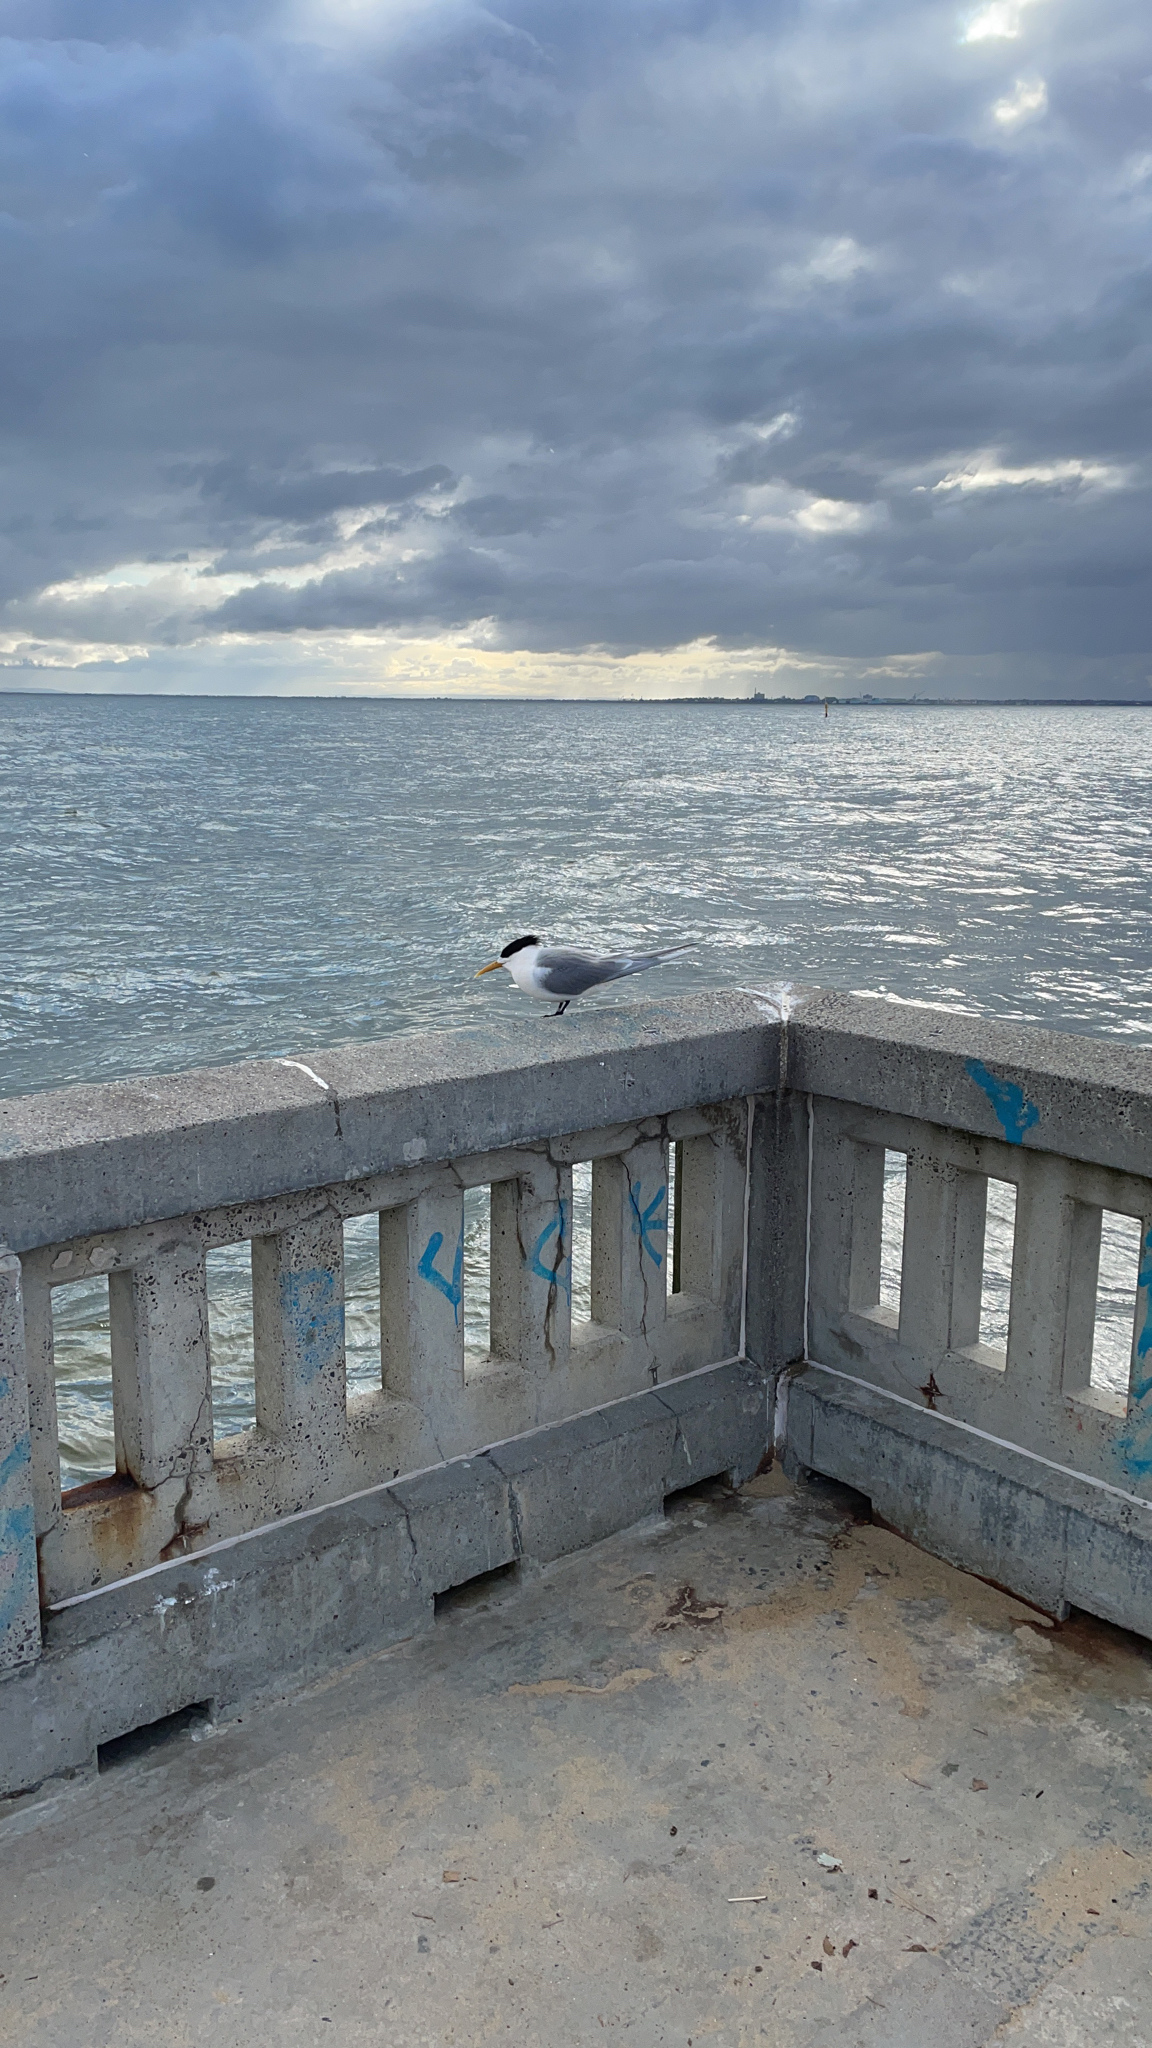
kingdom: Animalia
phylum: Chordata
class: Aves
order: Charadriiformes
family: Laridae
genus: Thalasseus
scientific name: Thalasseus bergii
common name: Greater crested tern
